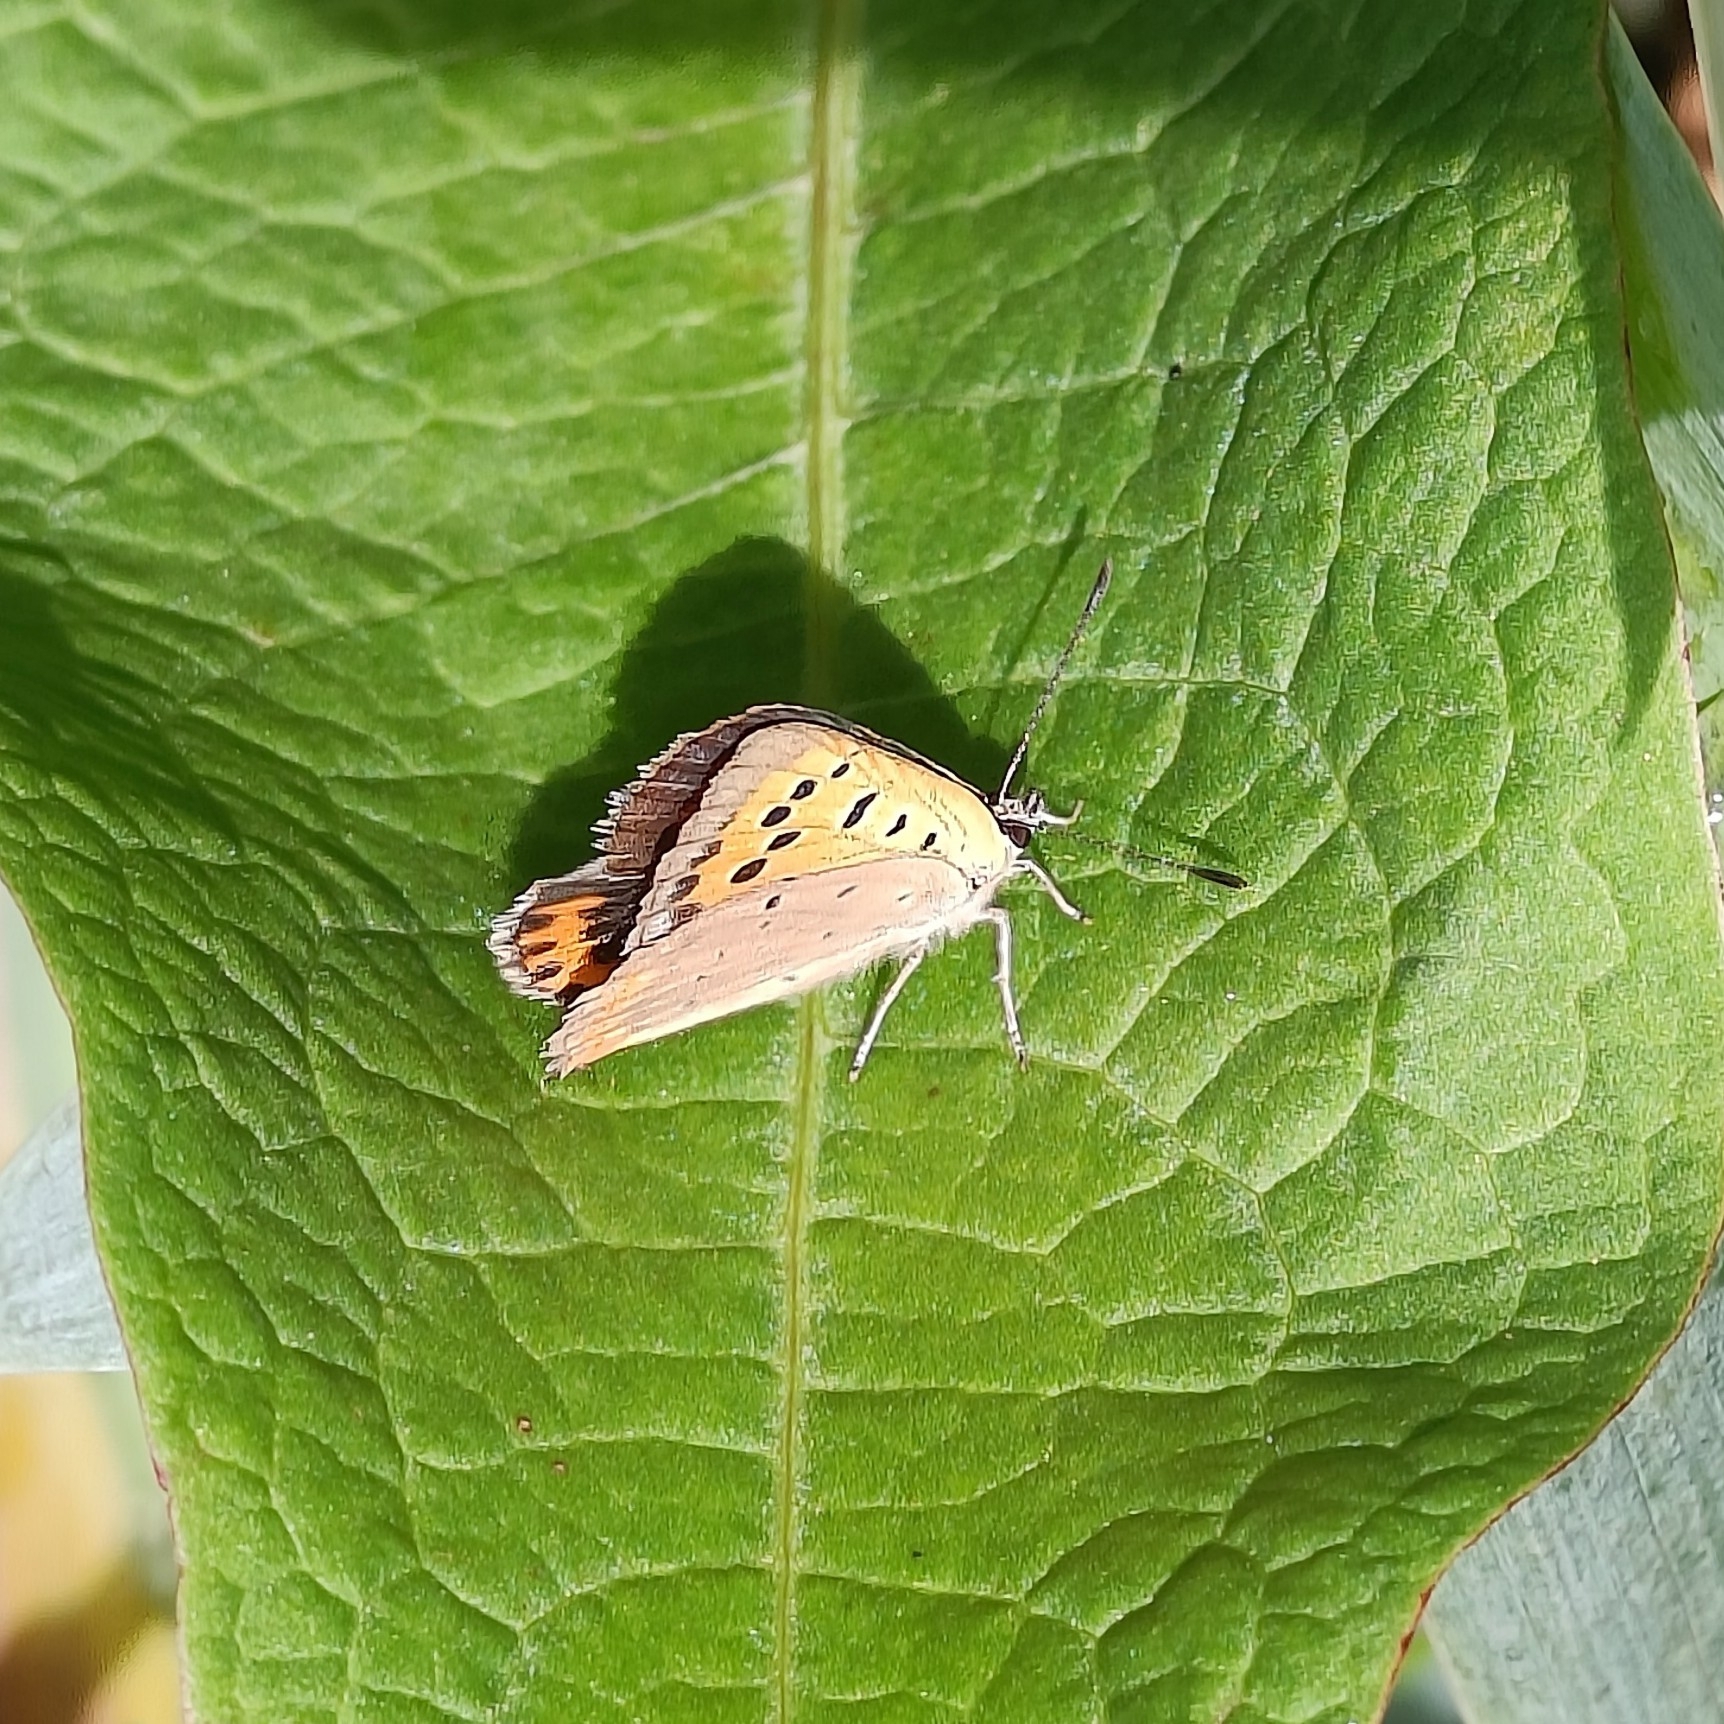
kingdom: Animalia
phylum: Arthropoda
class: Insecta
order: Lepidoptera
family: Lycaenidae
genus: Lycaena
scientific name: Lycaena phlaeas
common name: Small copper
